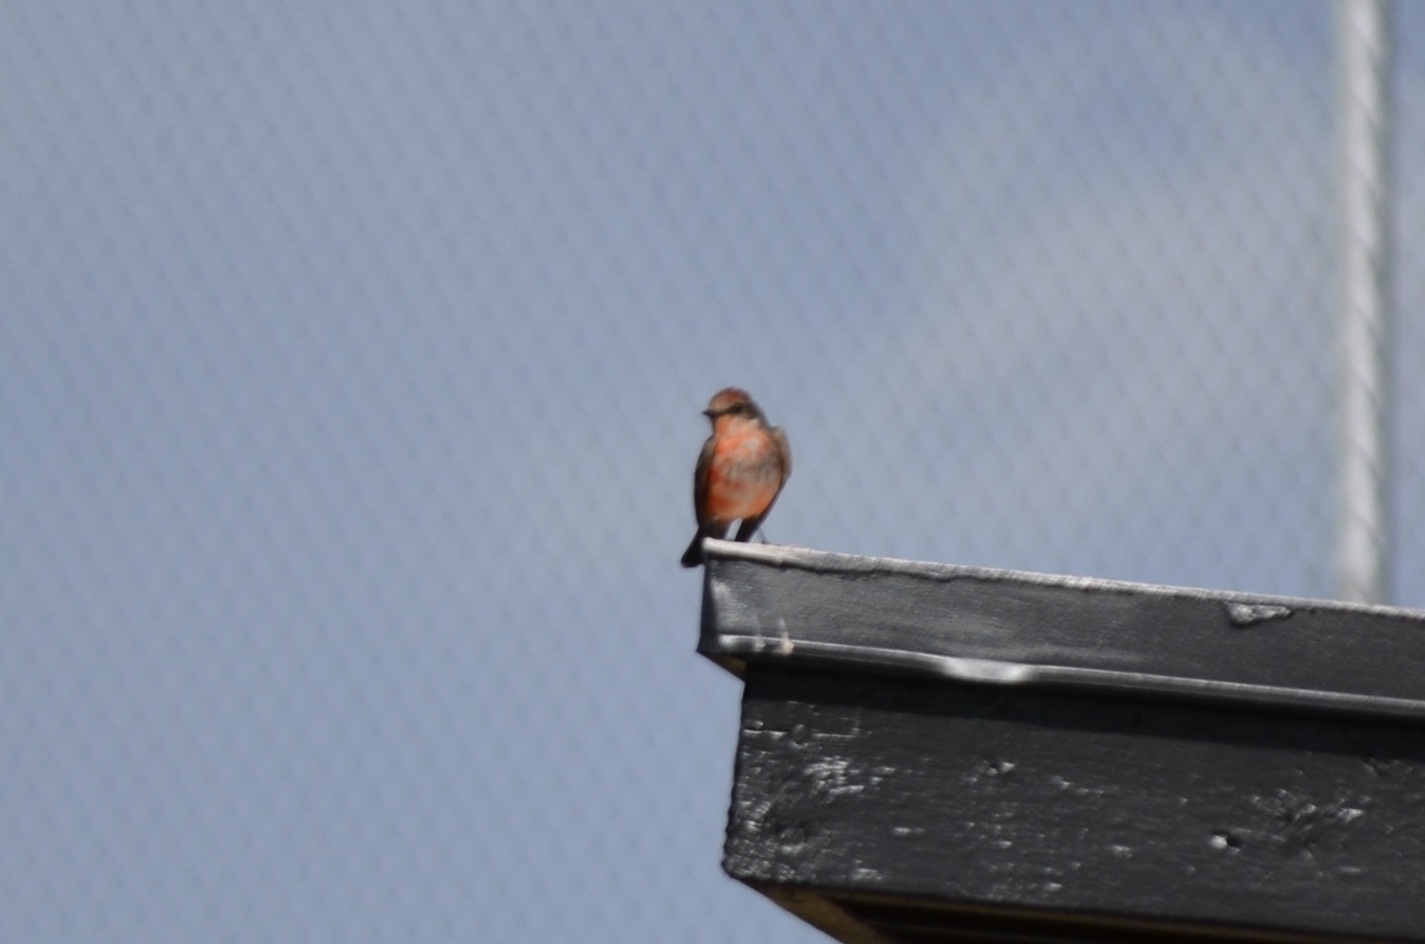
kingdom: Animalia
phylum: Chordata
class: Aves
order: Passeriformes
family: Tyrannidae
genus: Pyrocephalus
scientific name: Pyrocephalus rubinus
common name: Vermilion flycatcher
